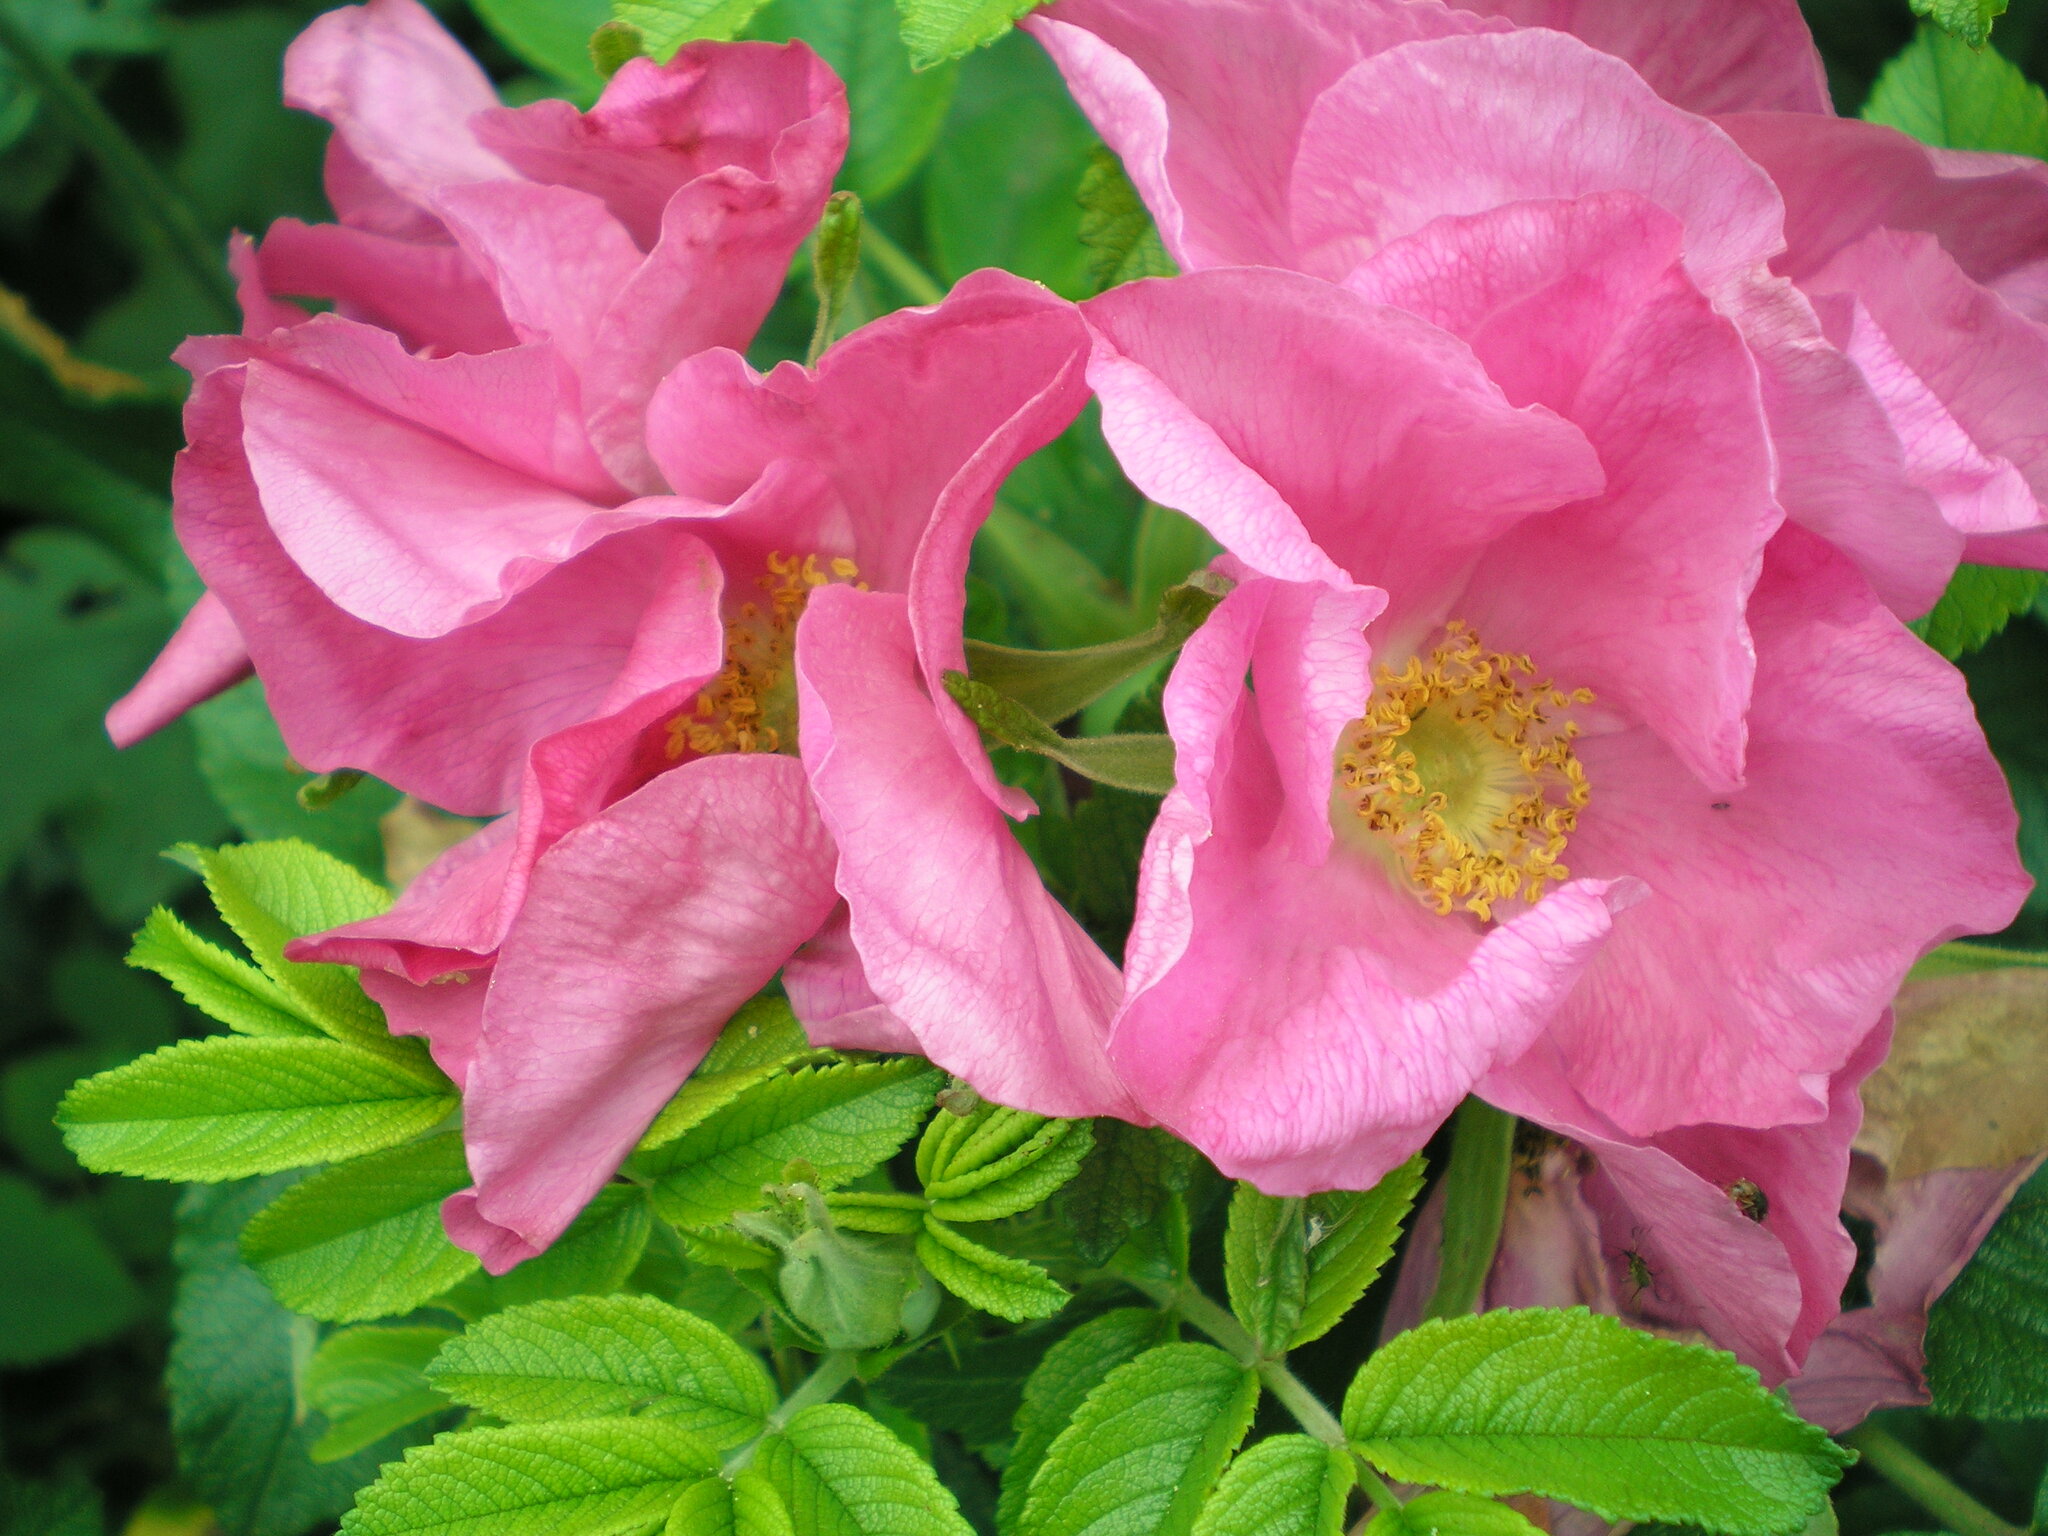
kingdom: Plantae
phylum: Tracheophyta
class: Magnoliopsida
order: Rosales
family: Rosaceae
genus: Rosa
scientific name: Rosa rugosa
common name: Japanese rose
